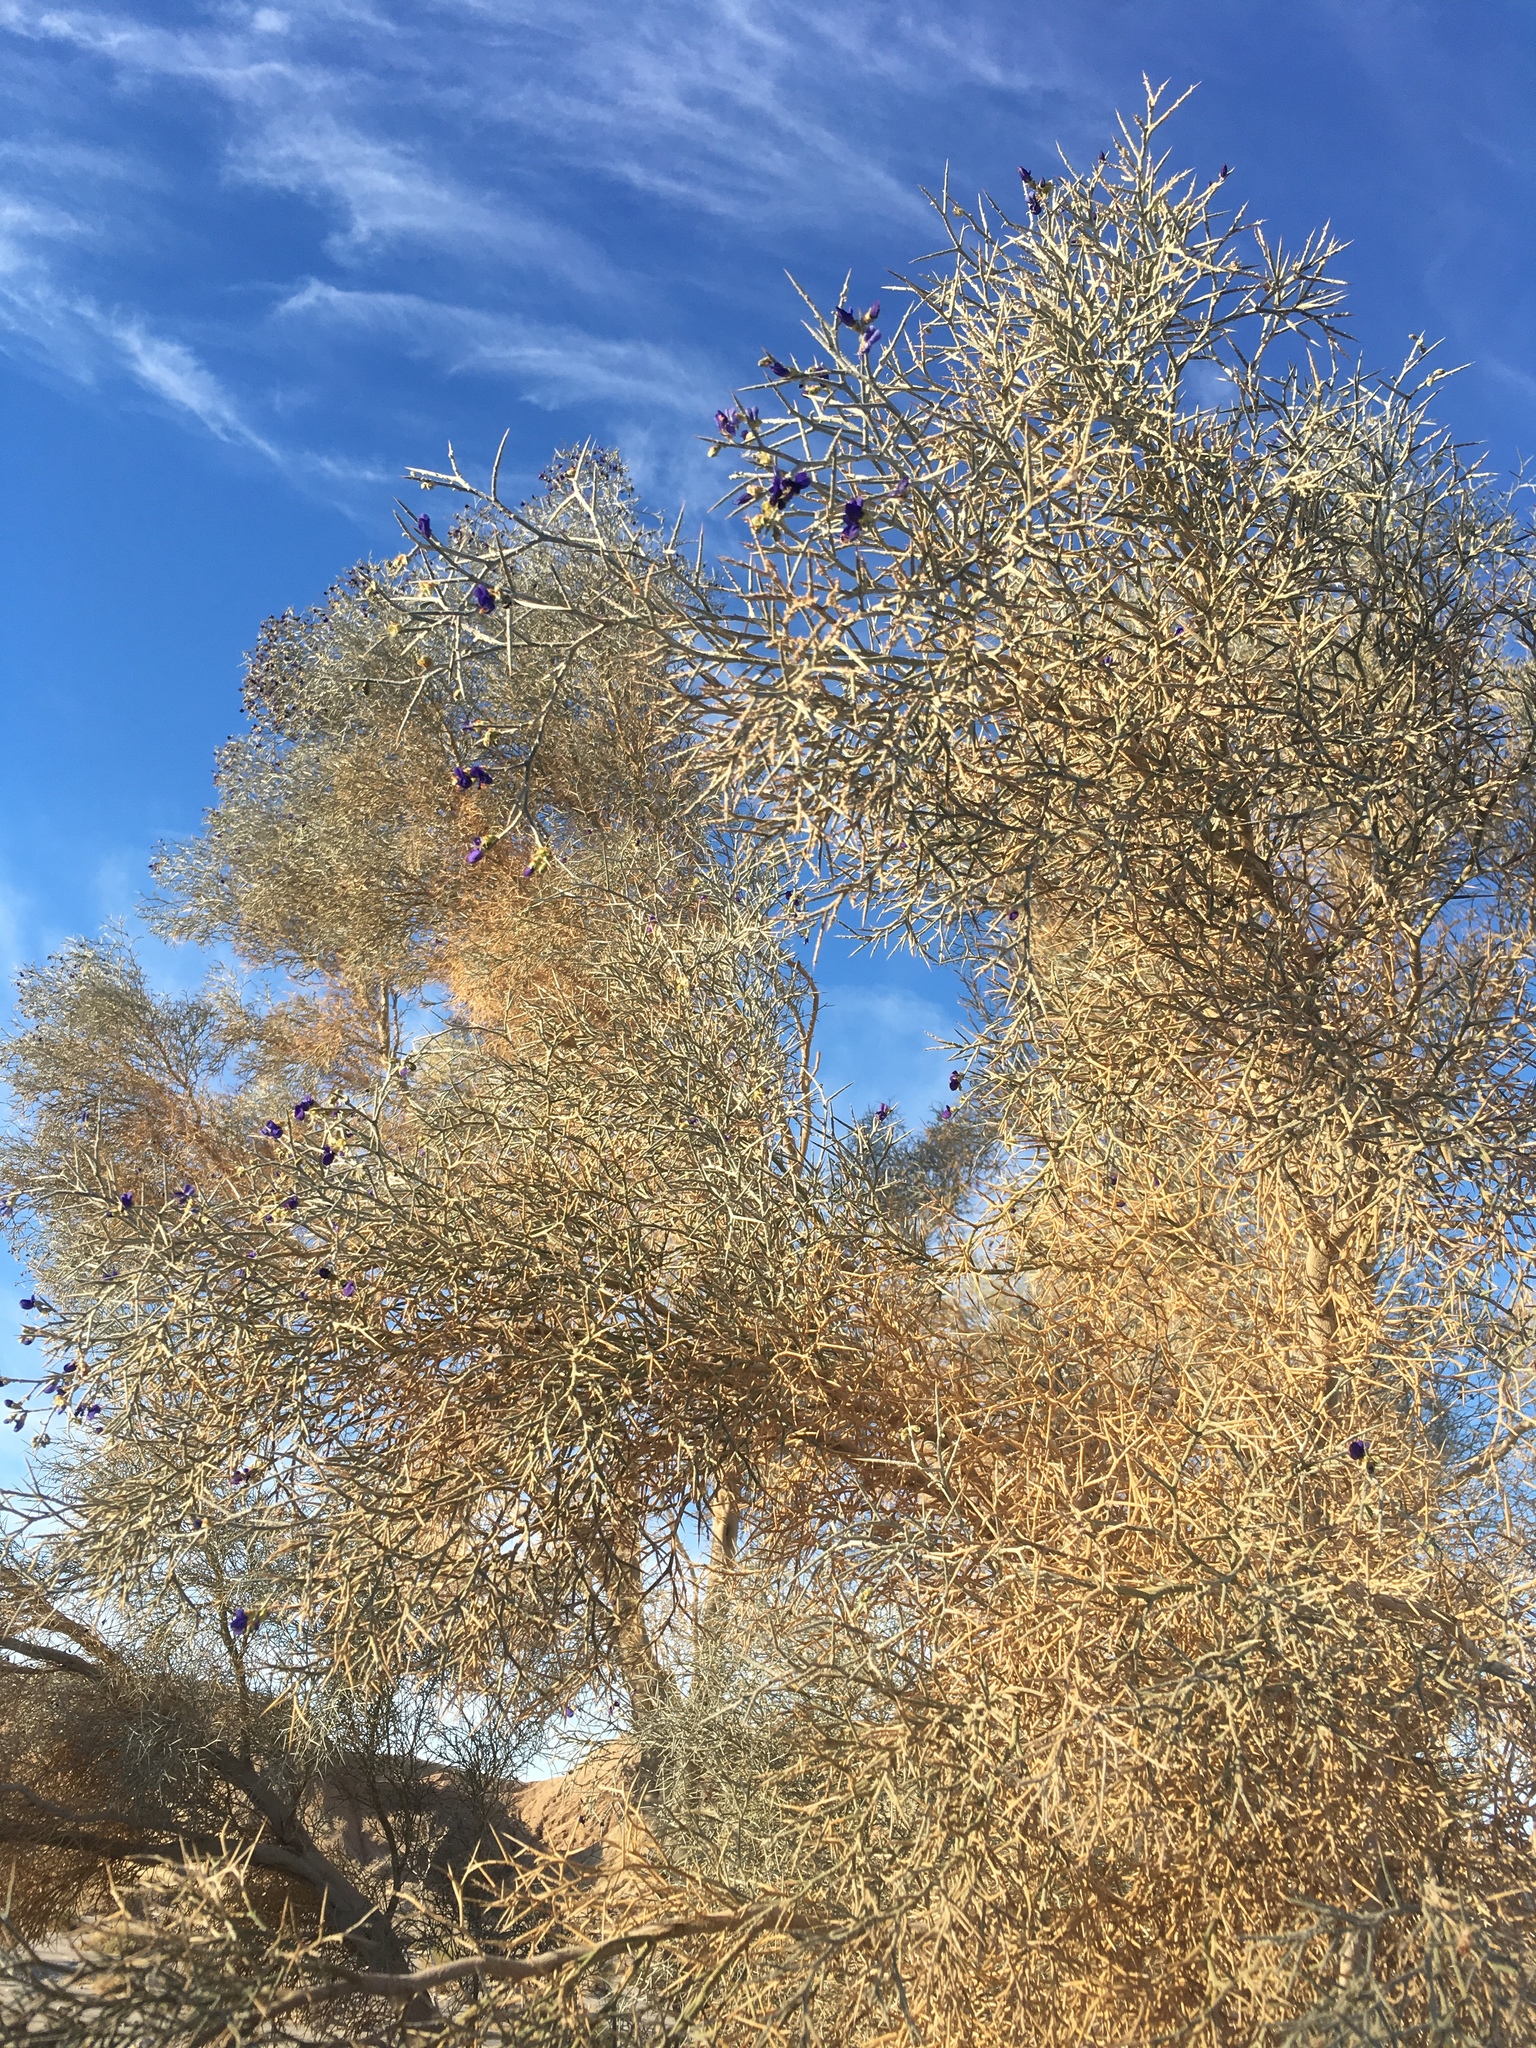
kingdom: Plantae
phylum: Tracheophyta
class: Magnoliopsida
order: Fabales
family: Fabaceae
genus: Psorothamnus
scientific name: Psorothamnus spinosus
